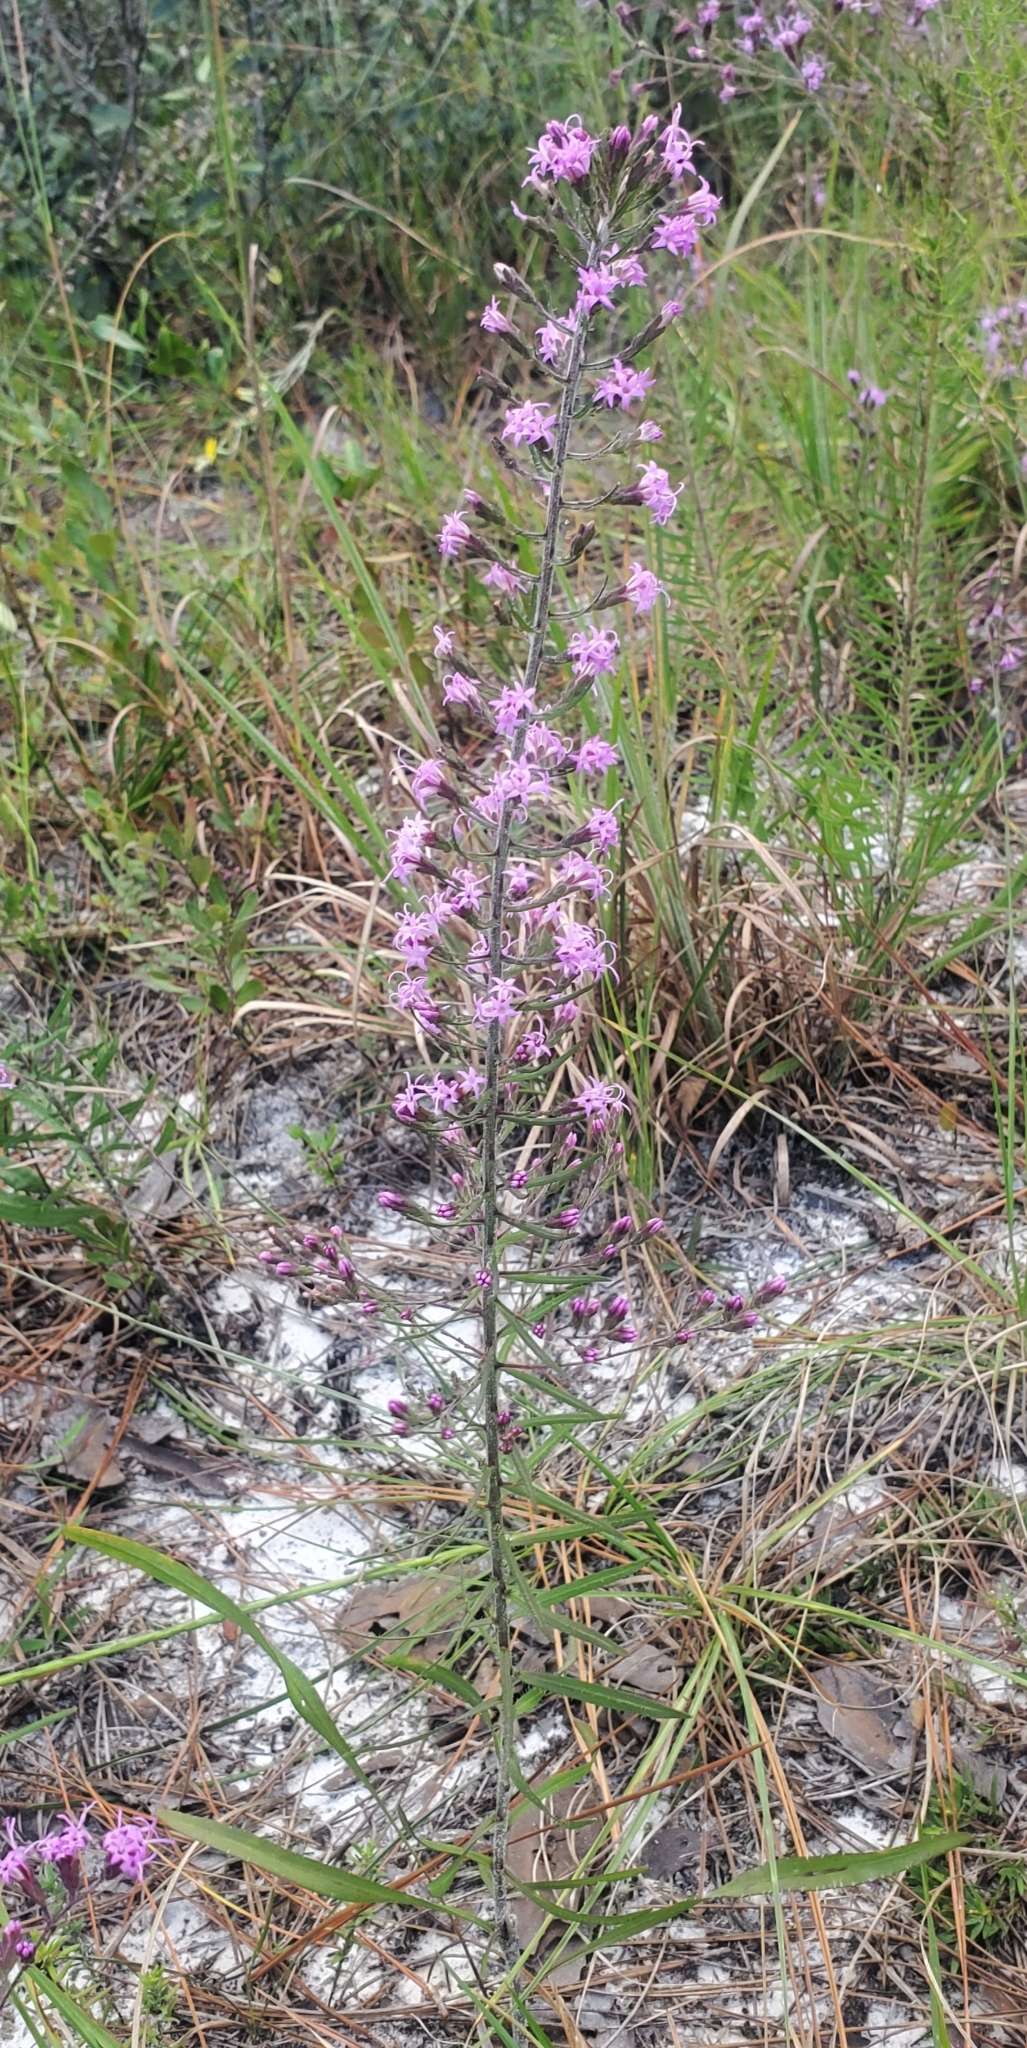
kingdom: Plantae
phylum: Tracheophyta
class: Magnoliopsida
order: Asterales
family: Asteraceae
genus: Liatris
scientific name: Liatris gracilis
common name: Slender gayfeather
